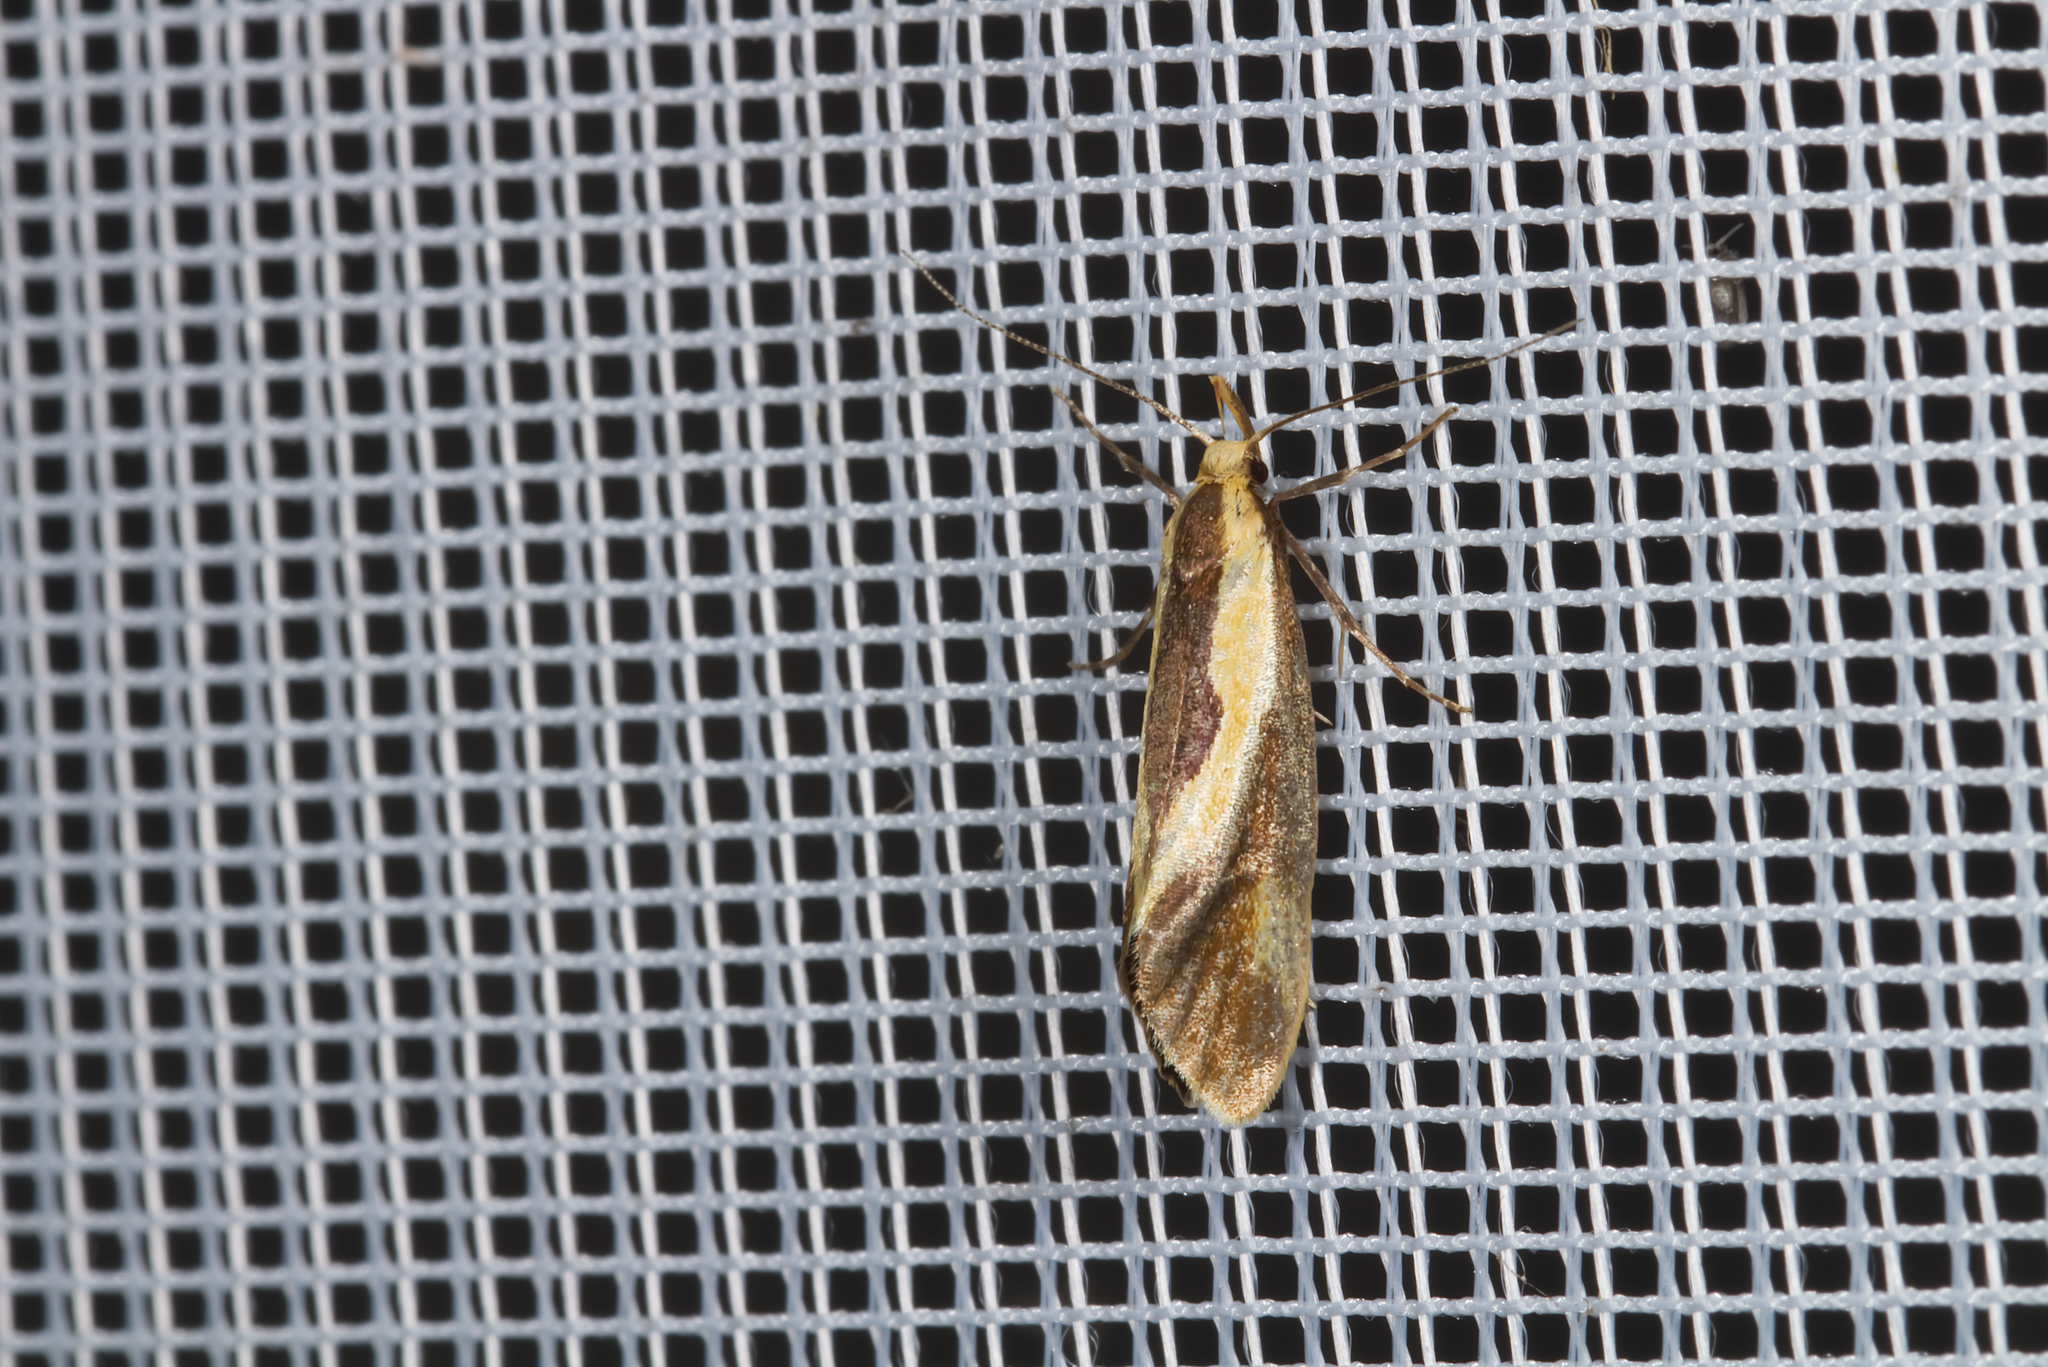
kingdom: Animalia
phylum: Arthropoda
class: Insecta
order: Lepidoptera
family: Oecophoridae
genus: Harpella
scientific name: Harpella forficella
